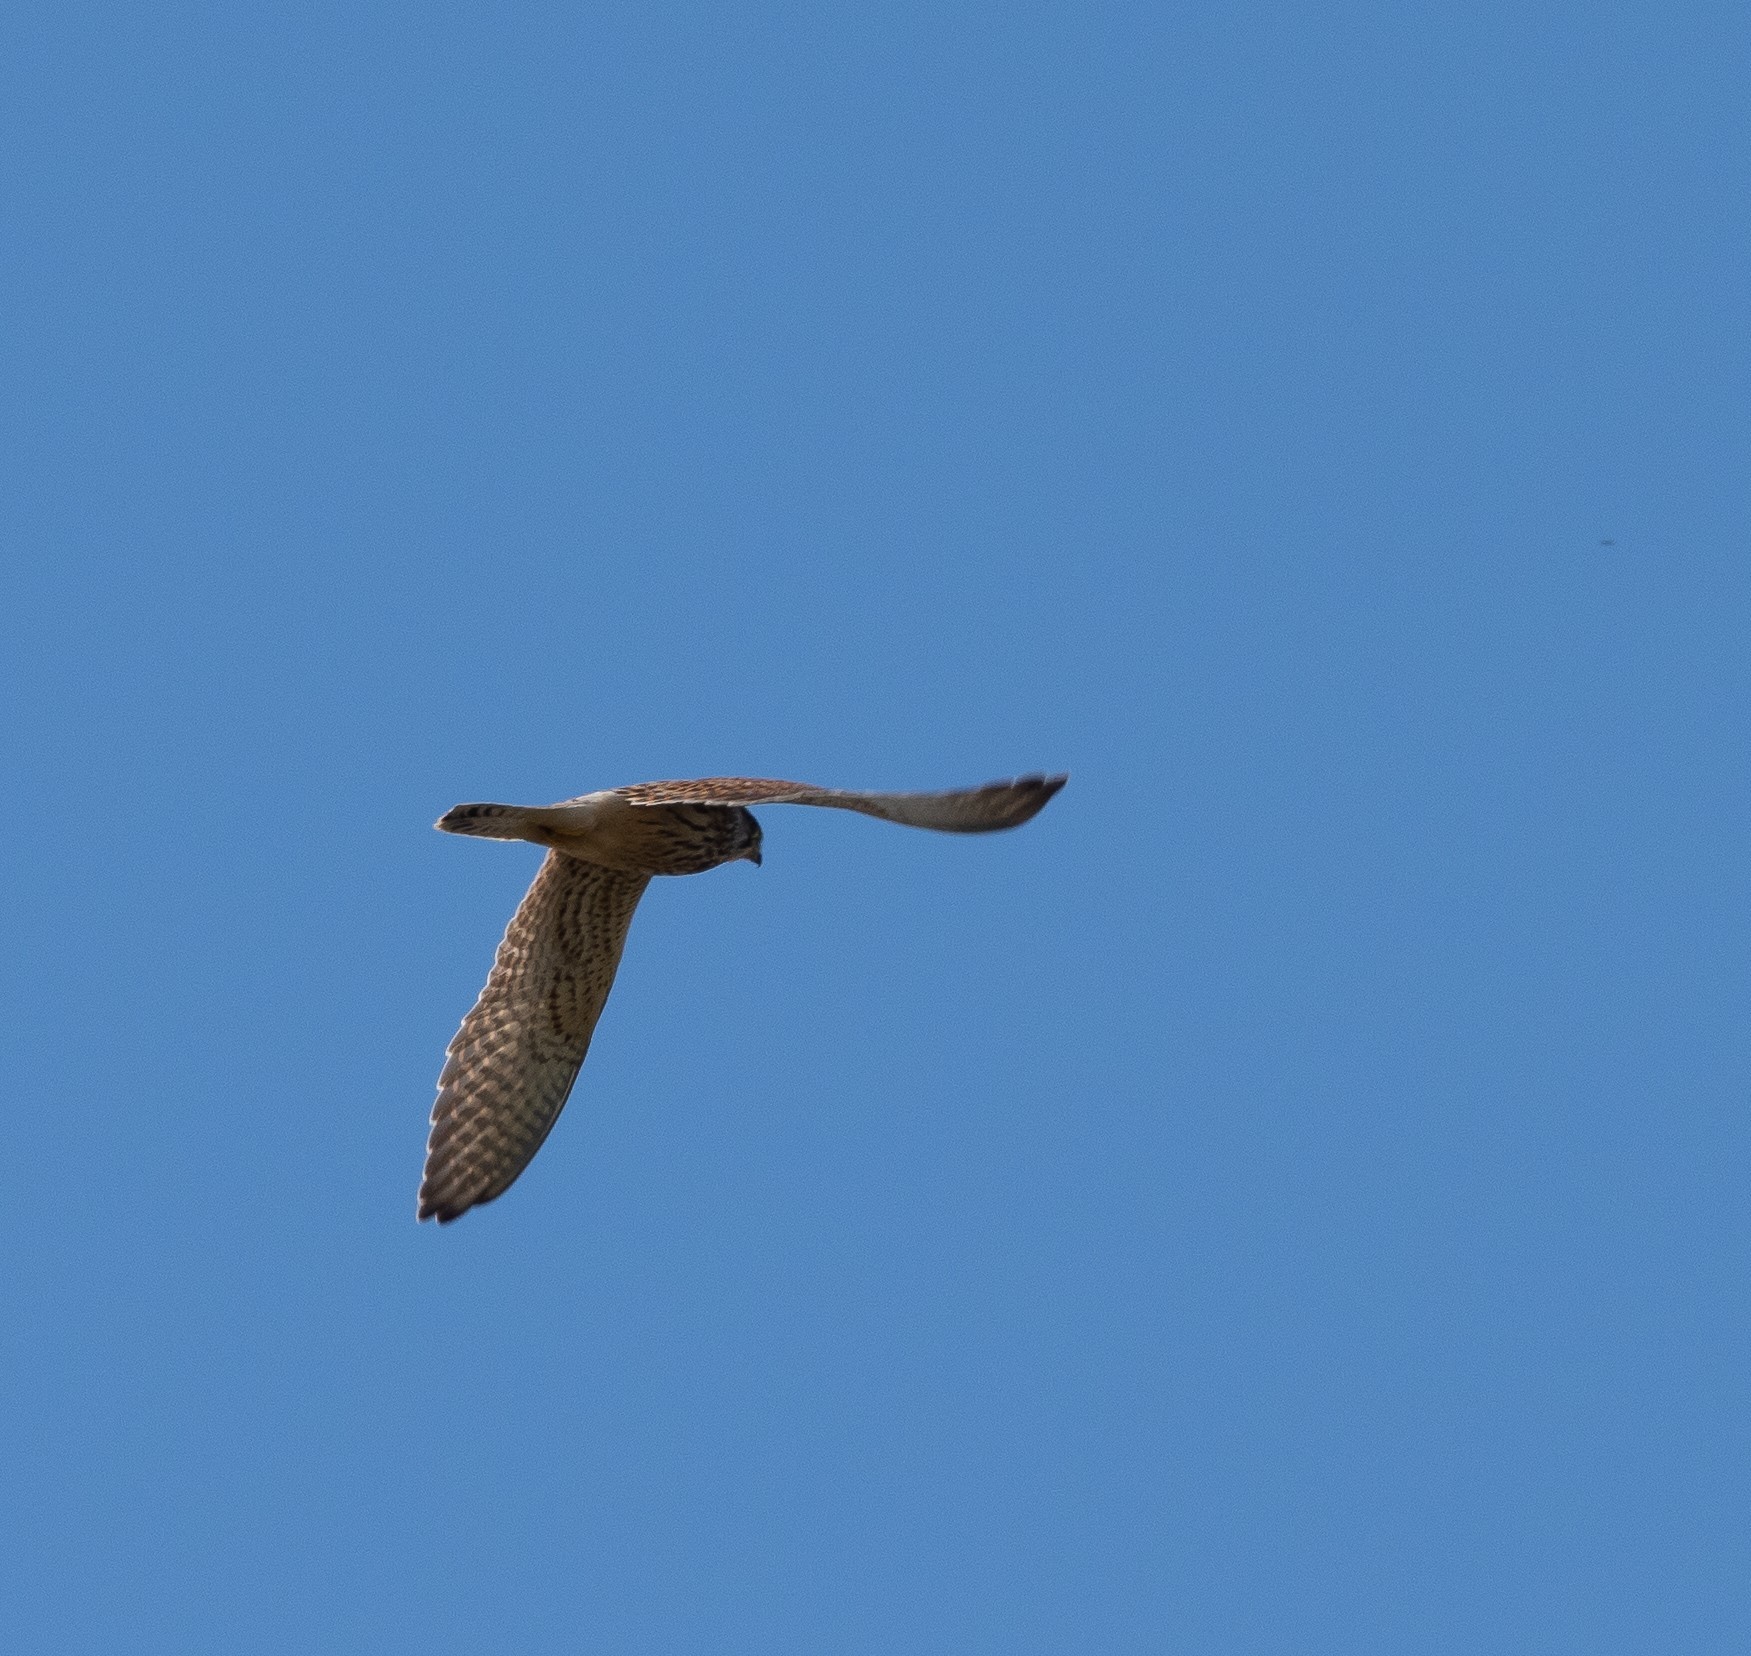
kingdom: Animalia
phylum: Chordata
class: Aves
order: Falconiformes
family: Falconidae
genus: Falco
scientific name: Falco tinnunculus
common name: Common kestrel
